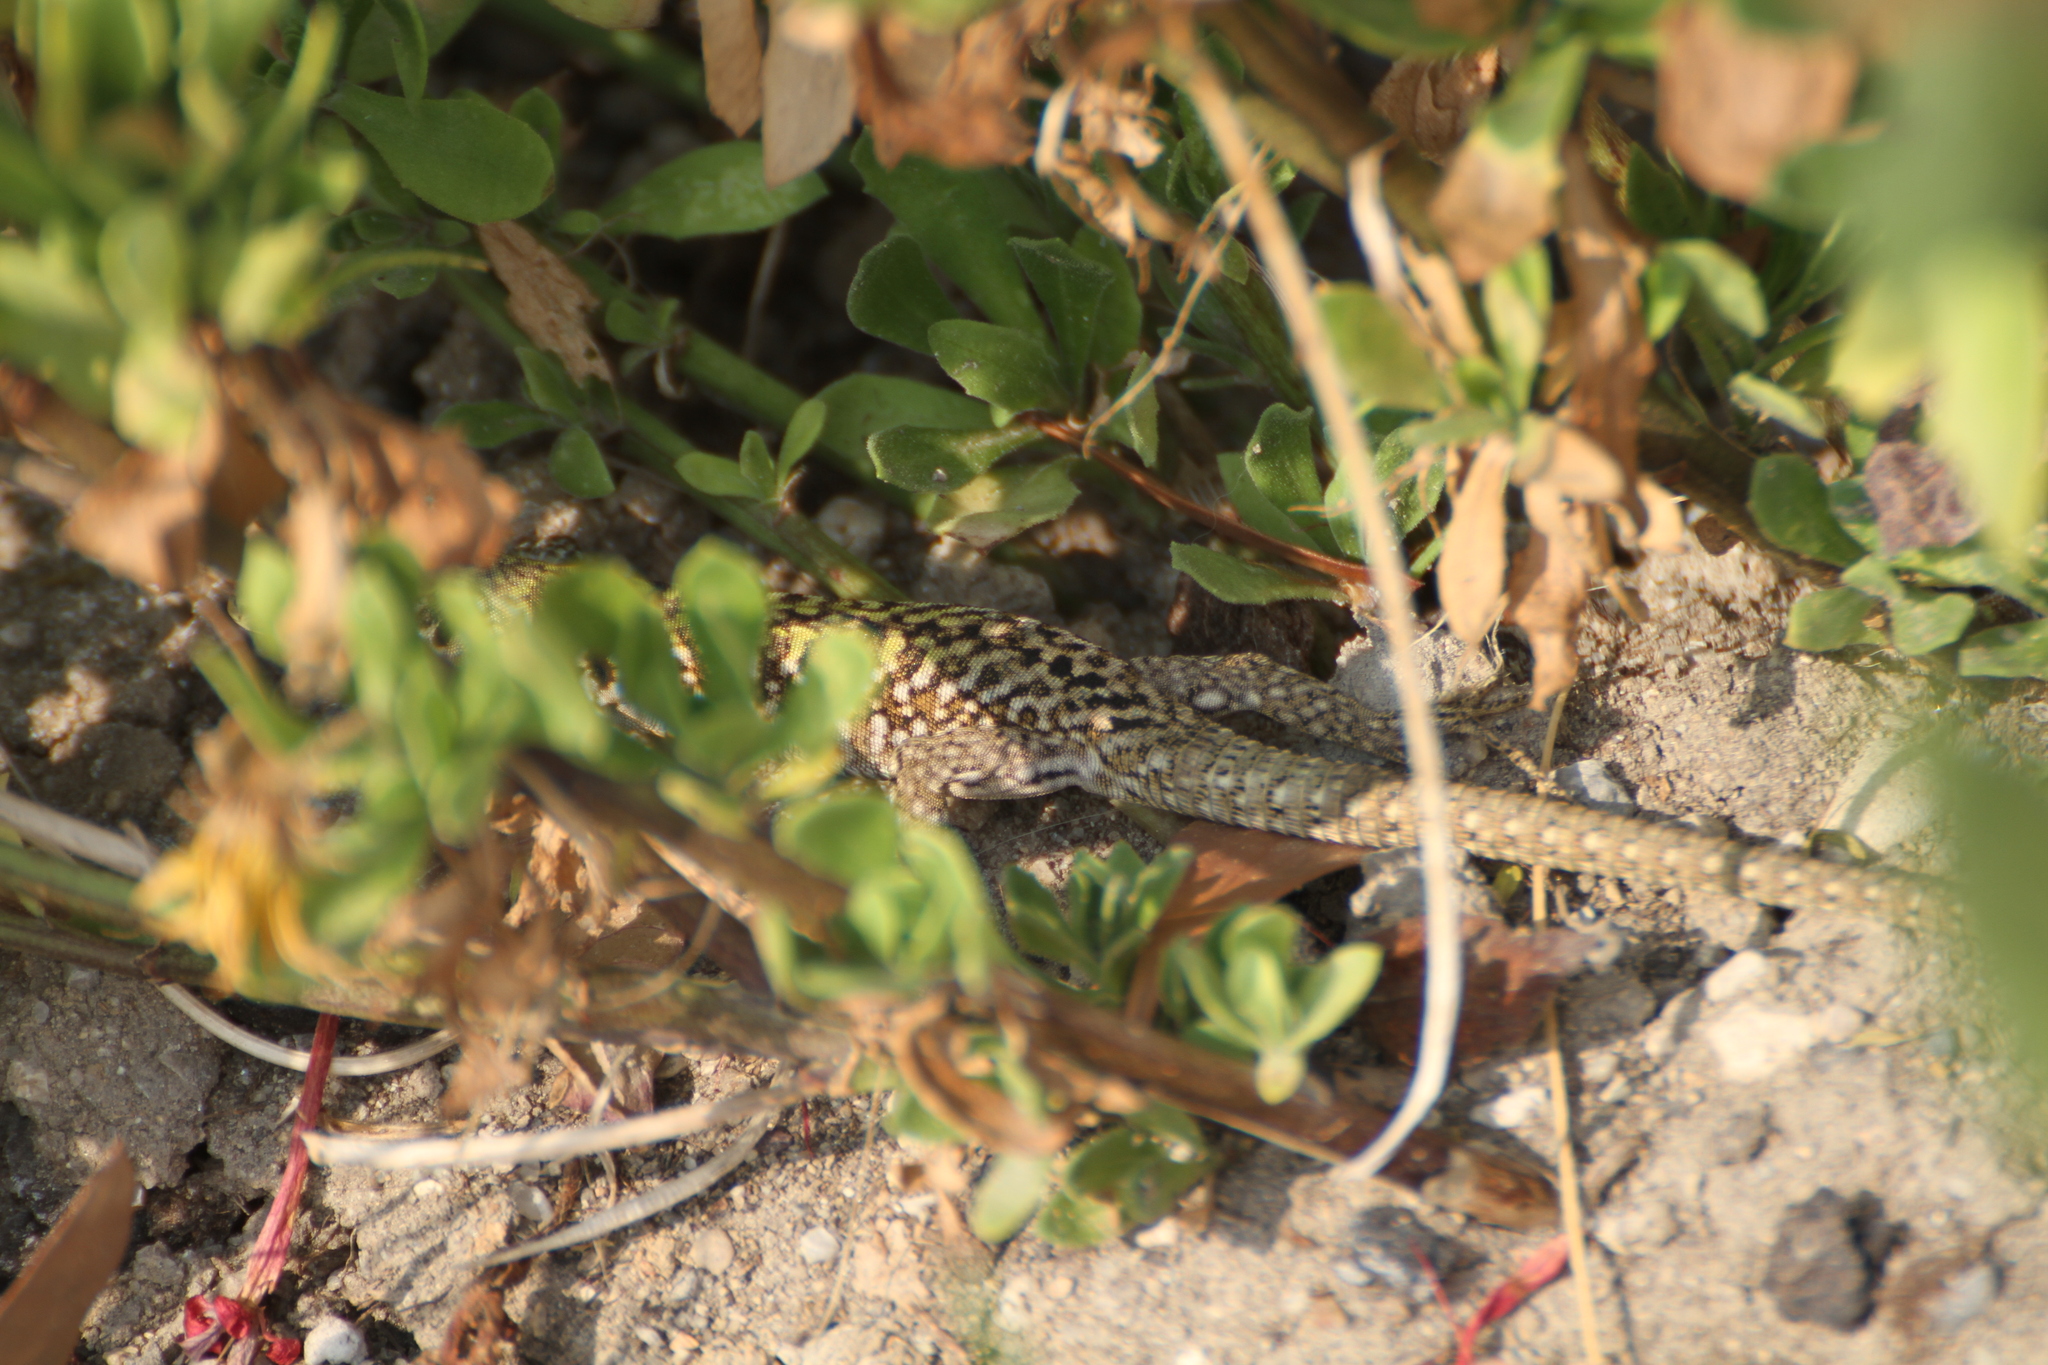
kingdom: Animalia
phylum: Chordata
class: Squamata
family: Lacertidae
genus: Podarcis
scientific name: Podarcis siculus
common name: Italian wall lizard
